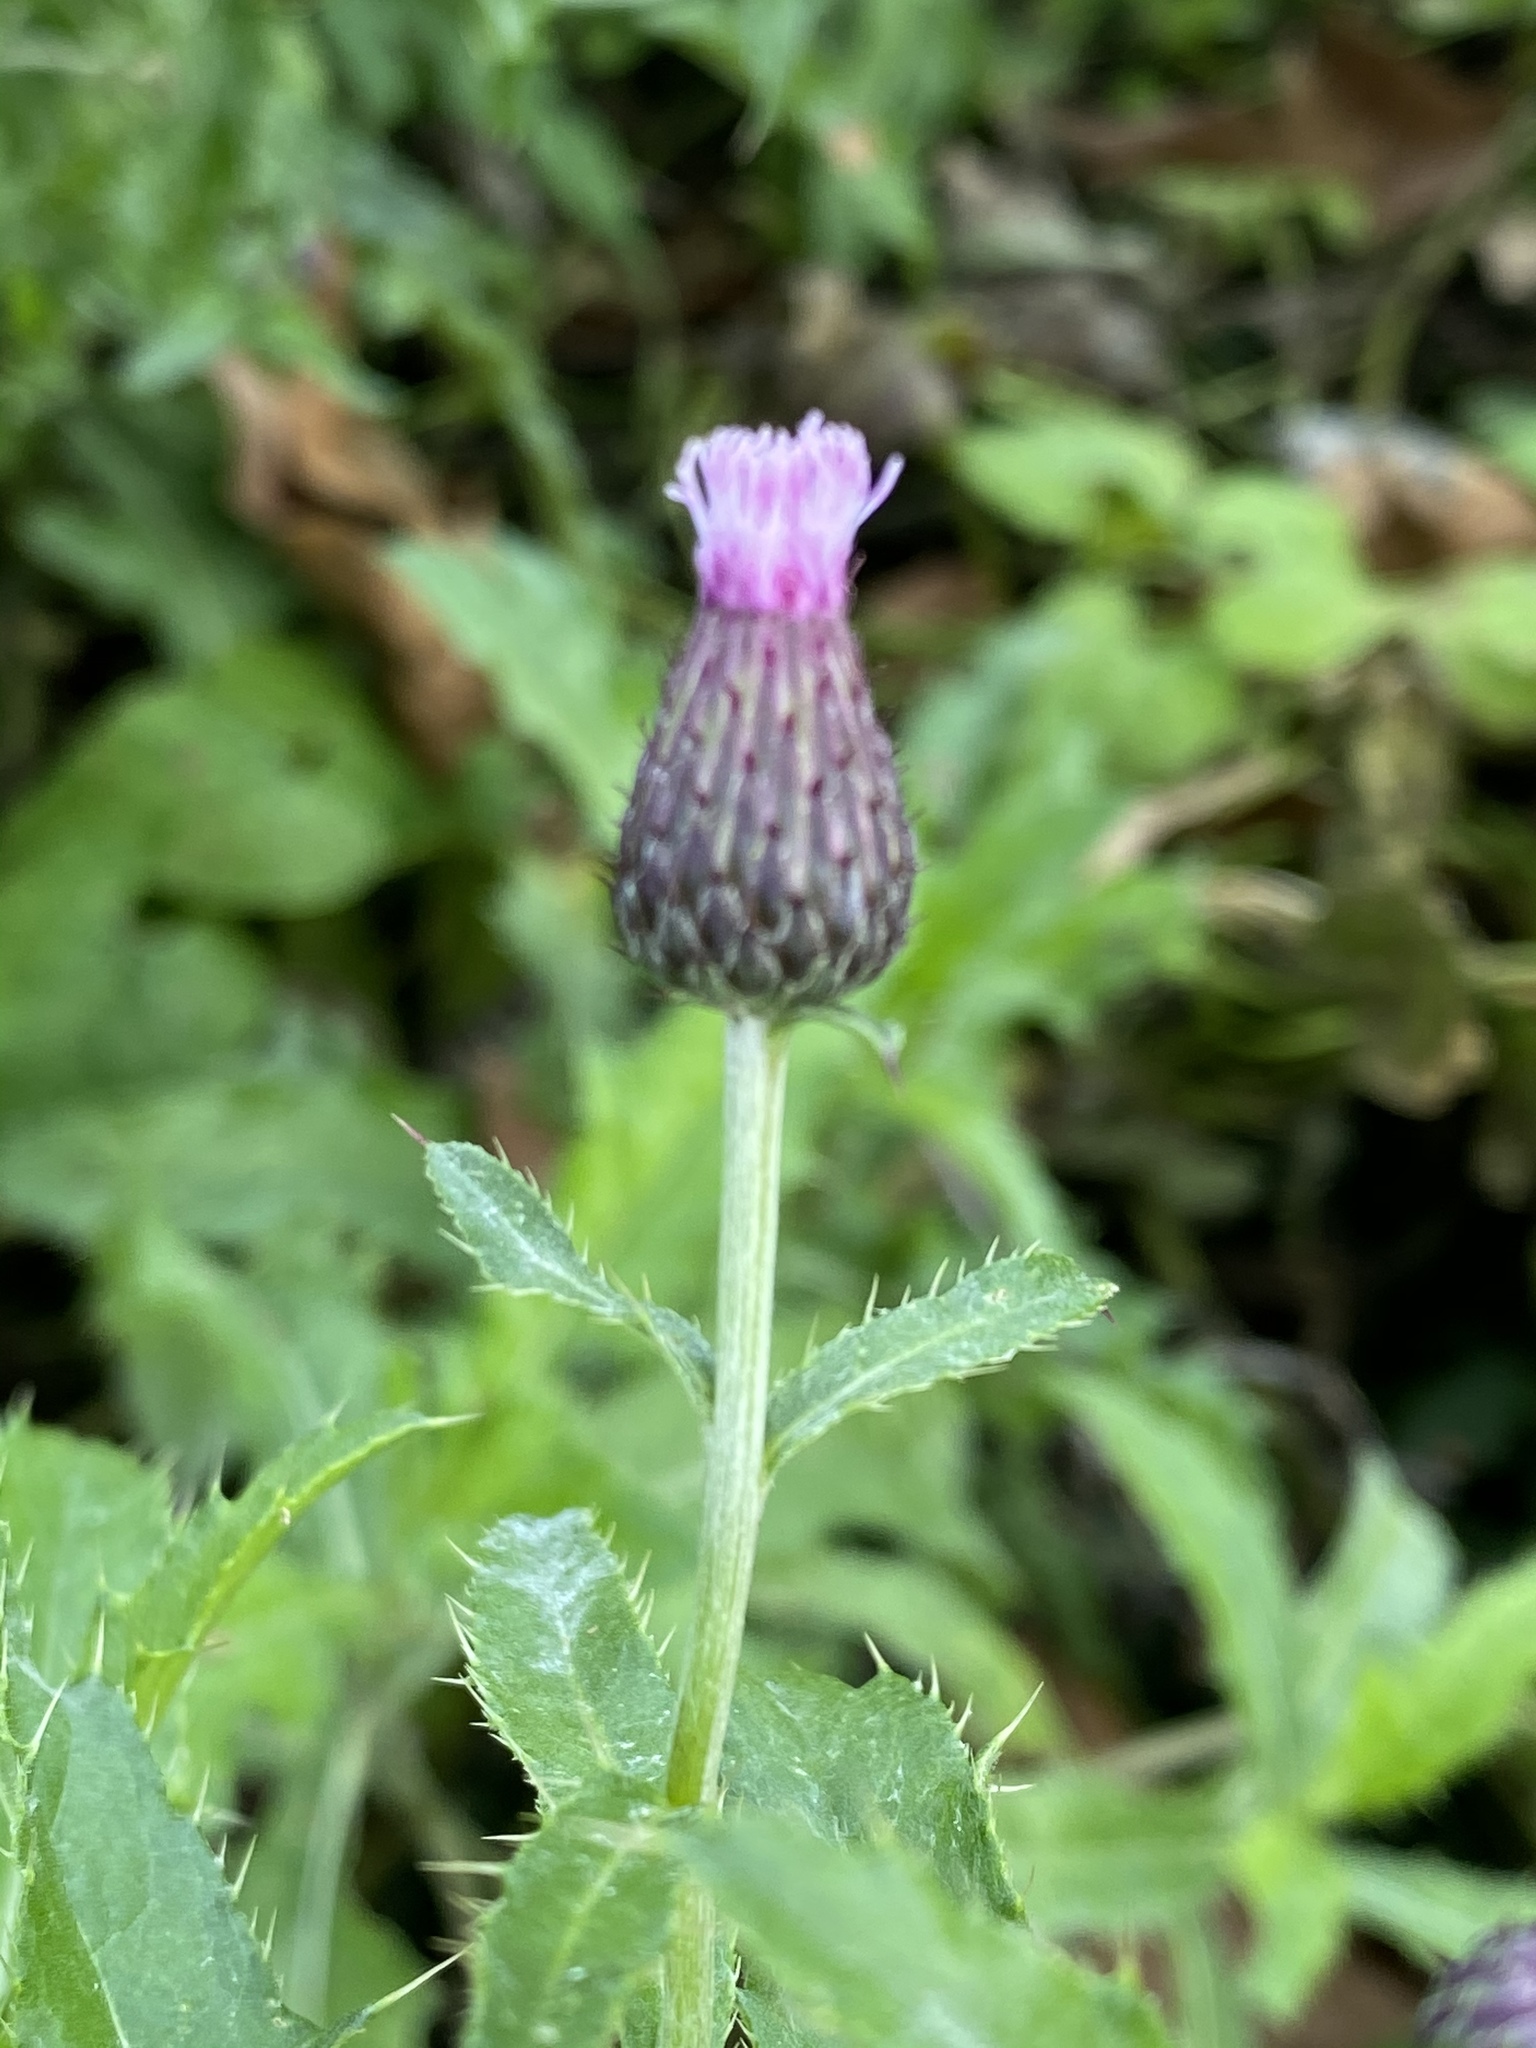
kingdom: Plantae
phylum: Tracheophyta
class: Magnoliopsida
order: Asterales
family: Asteraceae
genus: Cirsium
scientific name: Cirsium arvense
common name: Creeping thistle
